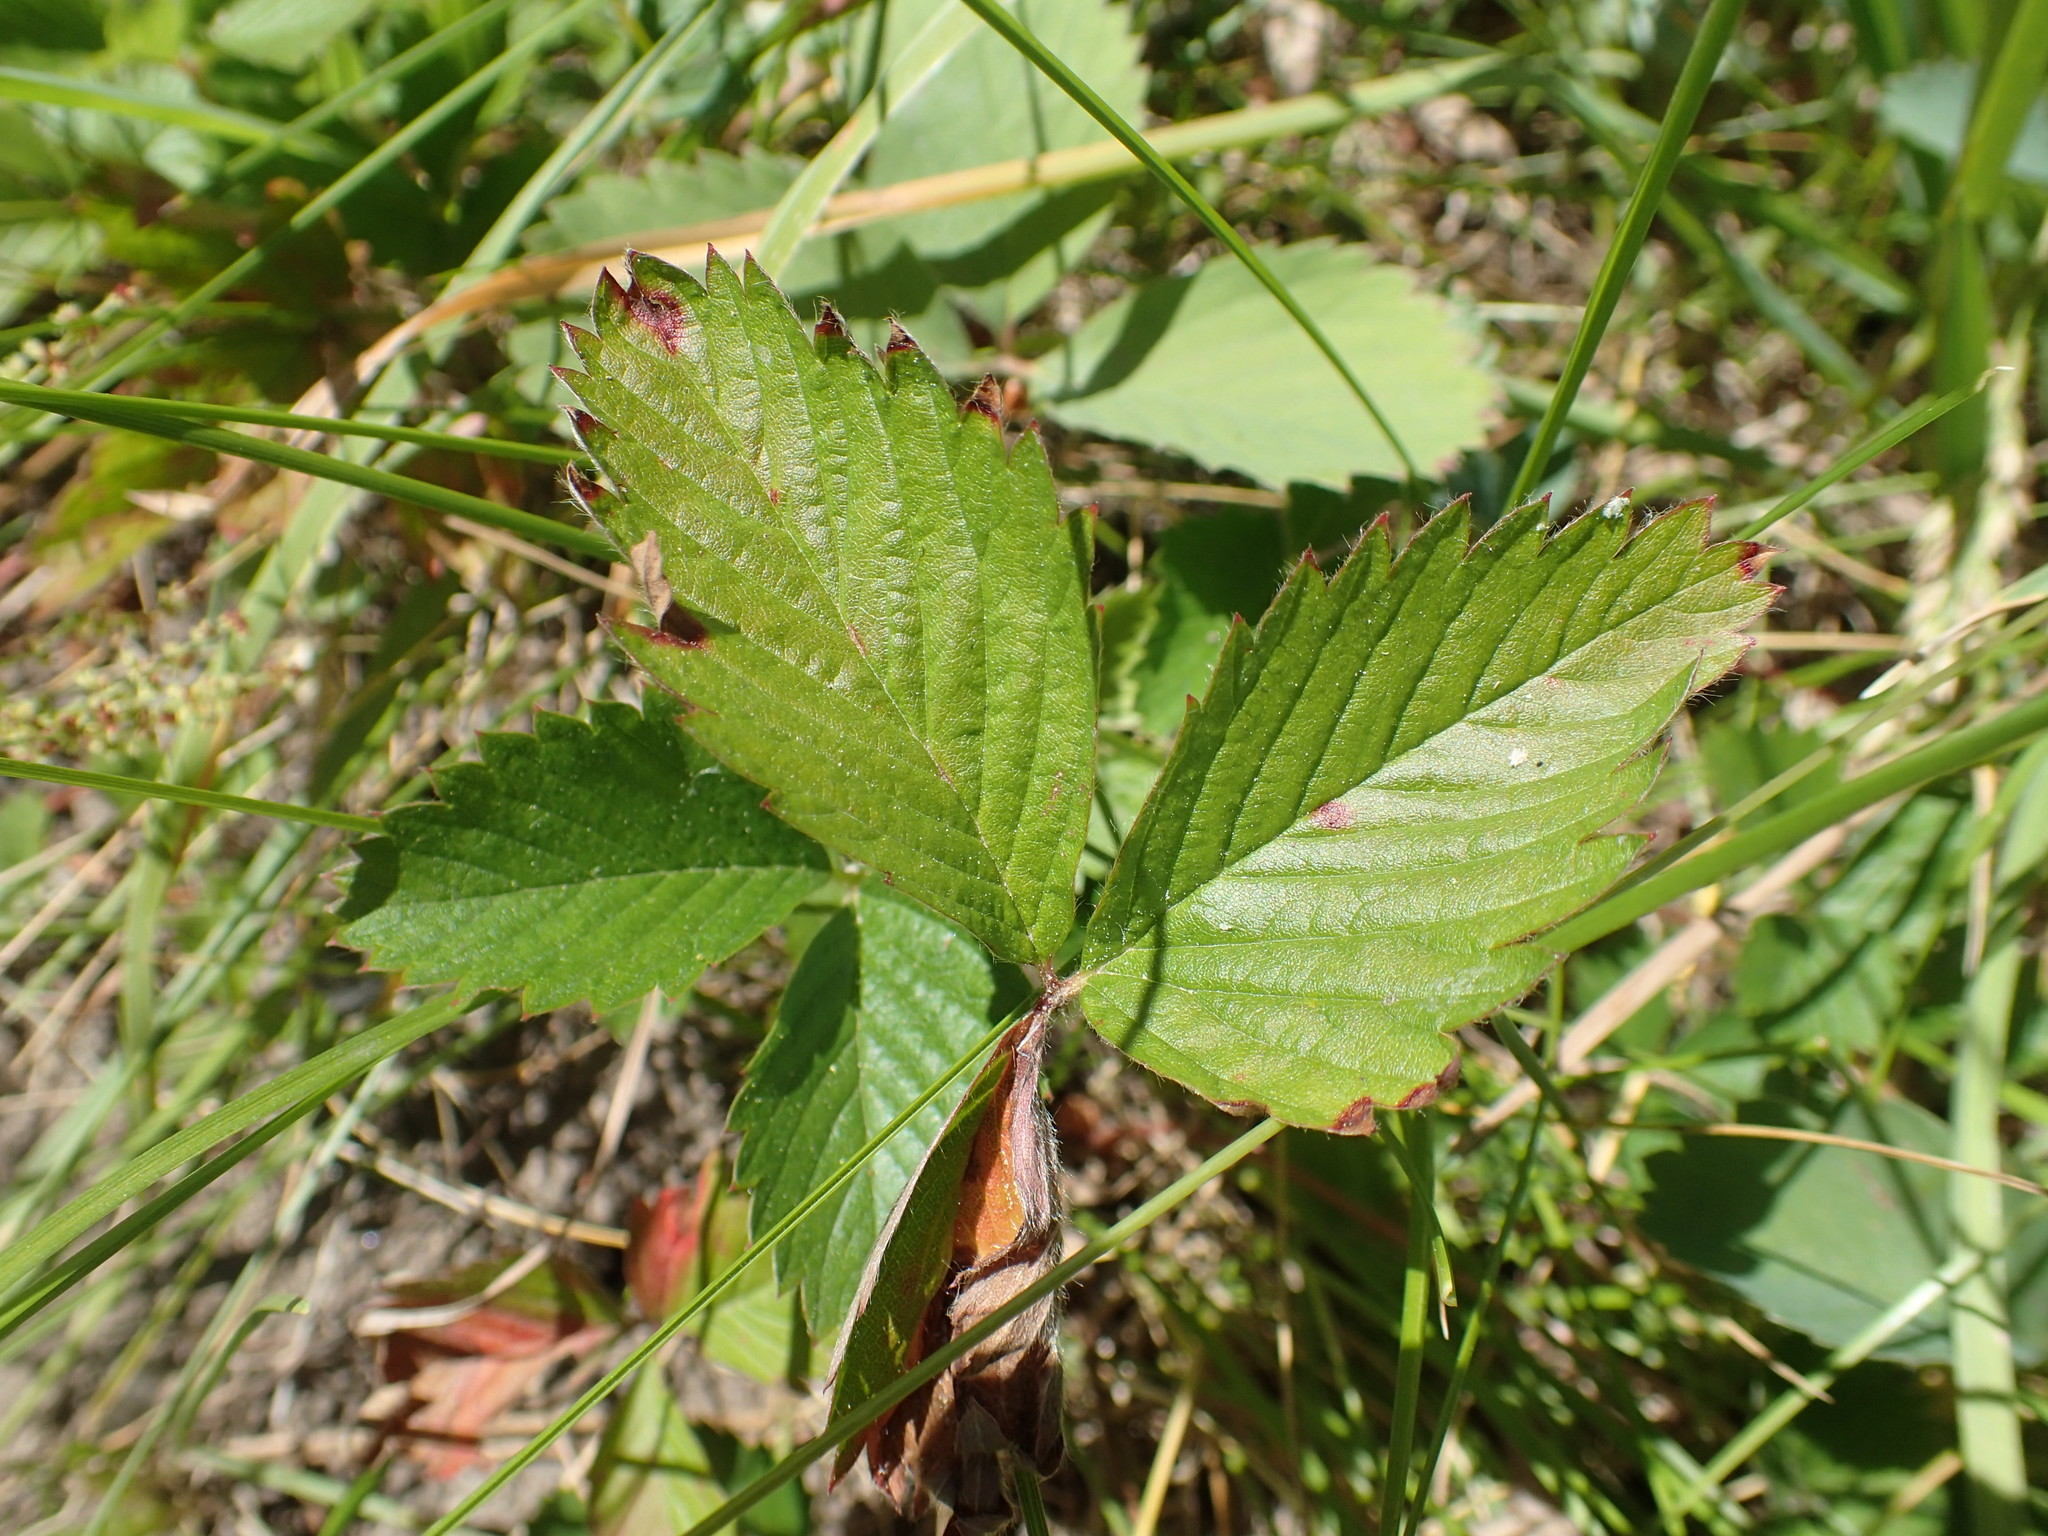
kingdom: Plantae
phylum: Tracheophyta
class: Magnoliopsida
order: Rosales
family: Rosaceae
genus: Fragaria
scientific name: Fragaria vesca
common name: Wild strawberry
